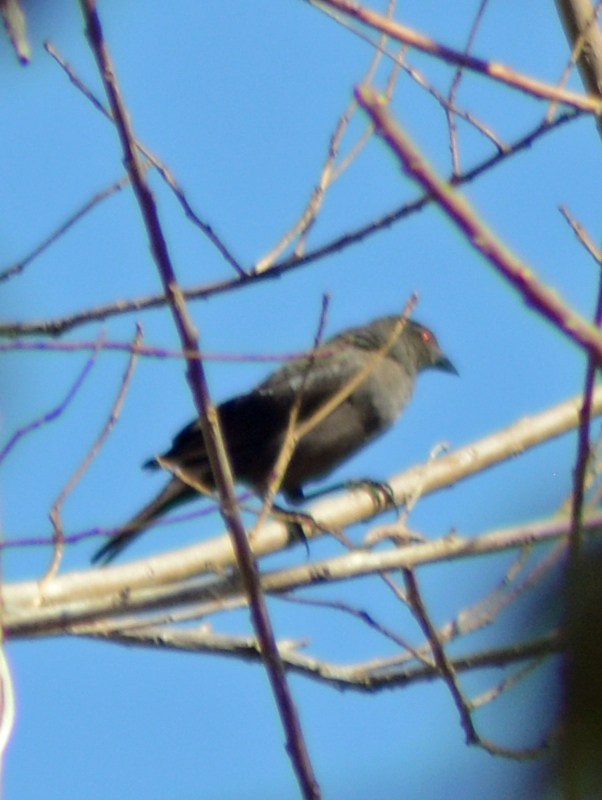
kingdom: Animalia
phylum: Chordata
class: Aves
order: Passeriformes
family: Icteridae
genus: Molothrus
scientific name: Molothrus aeneus
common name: Bronzed cowbird
